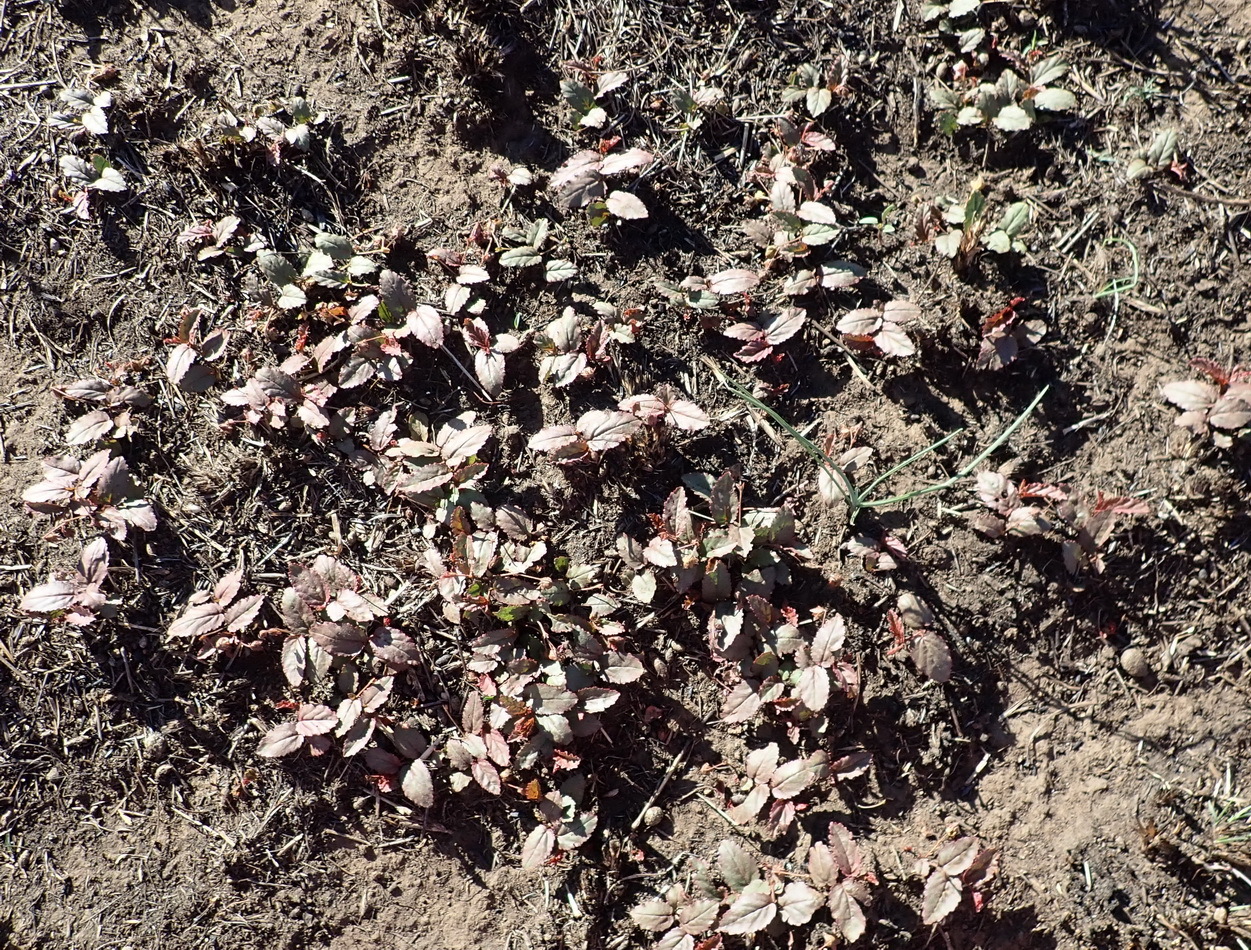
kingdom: Plantae
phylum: Tracheophyta
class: Magnoliopsida
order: Malvales
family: Malvaceae
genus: Hermannia
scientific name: Hermannia depressa
